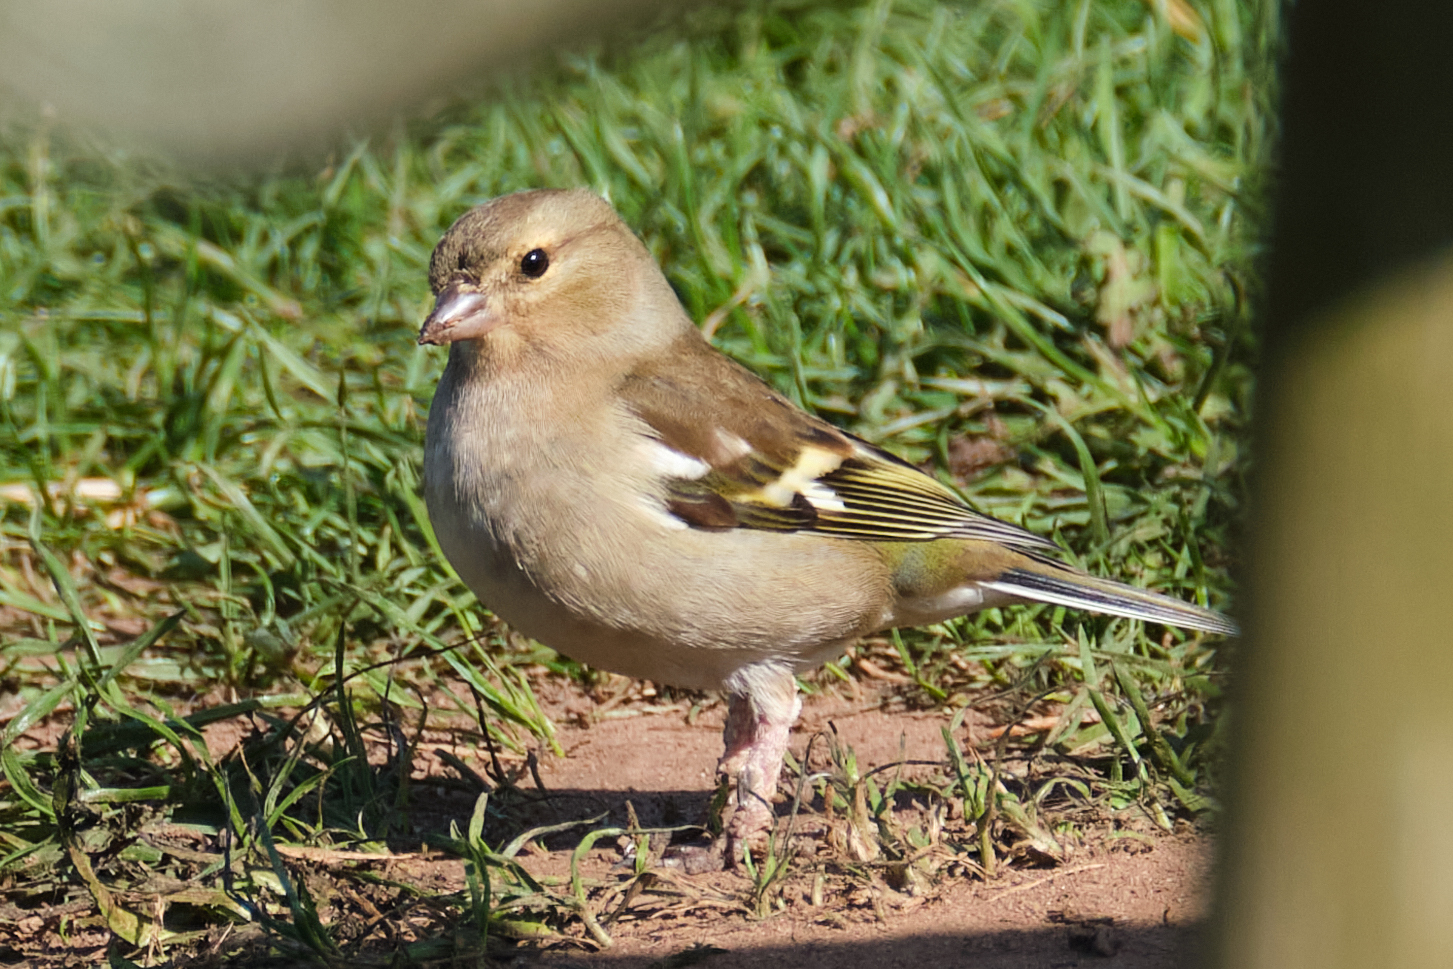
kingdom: Animalia
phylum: Chordata
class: Aves
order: Passeriformes
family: Fringillidae
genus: Fringilla
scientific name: Fringilla coelebs
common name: Common chaffinch
